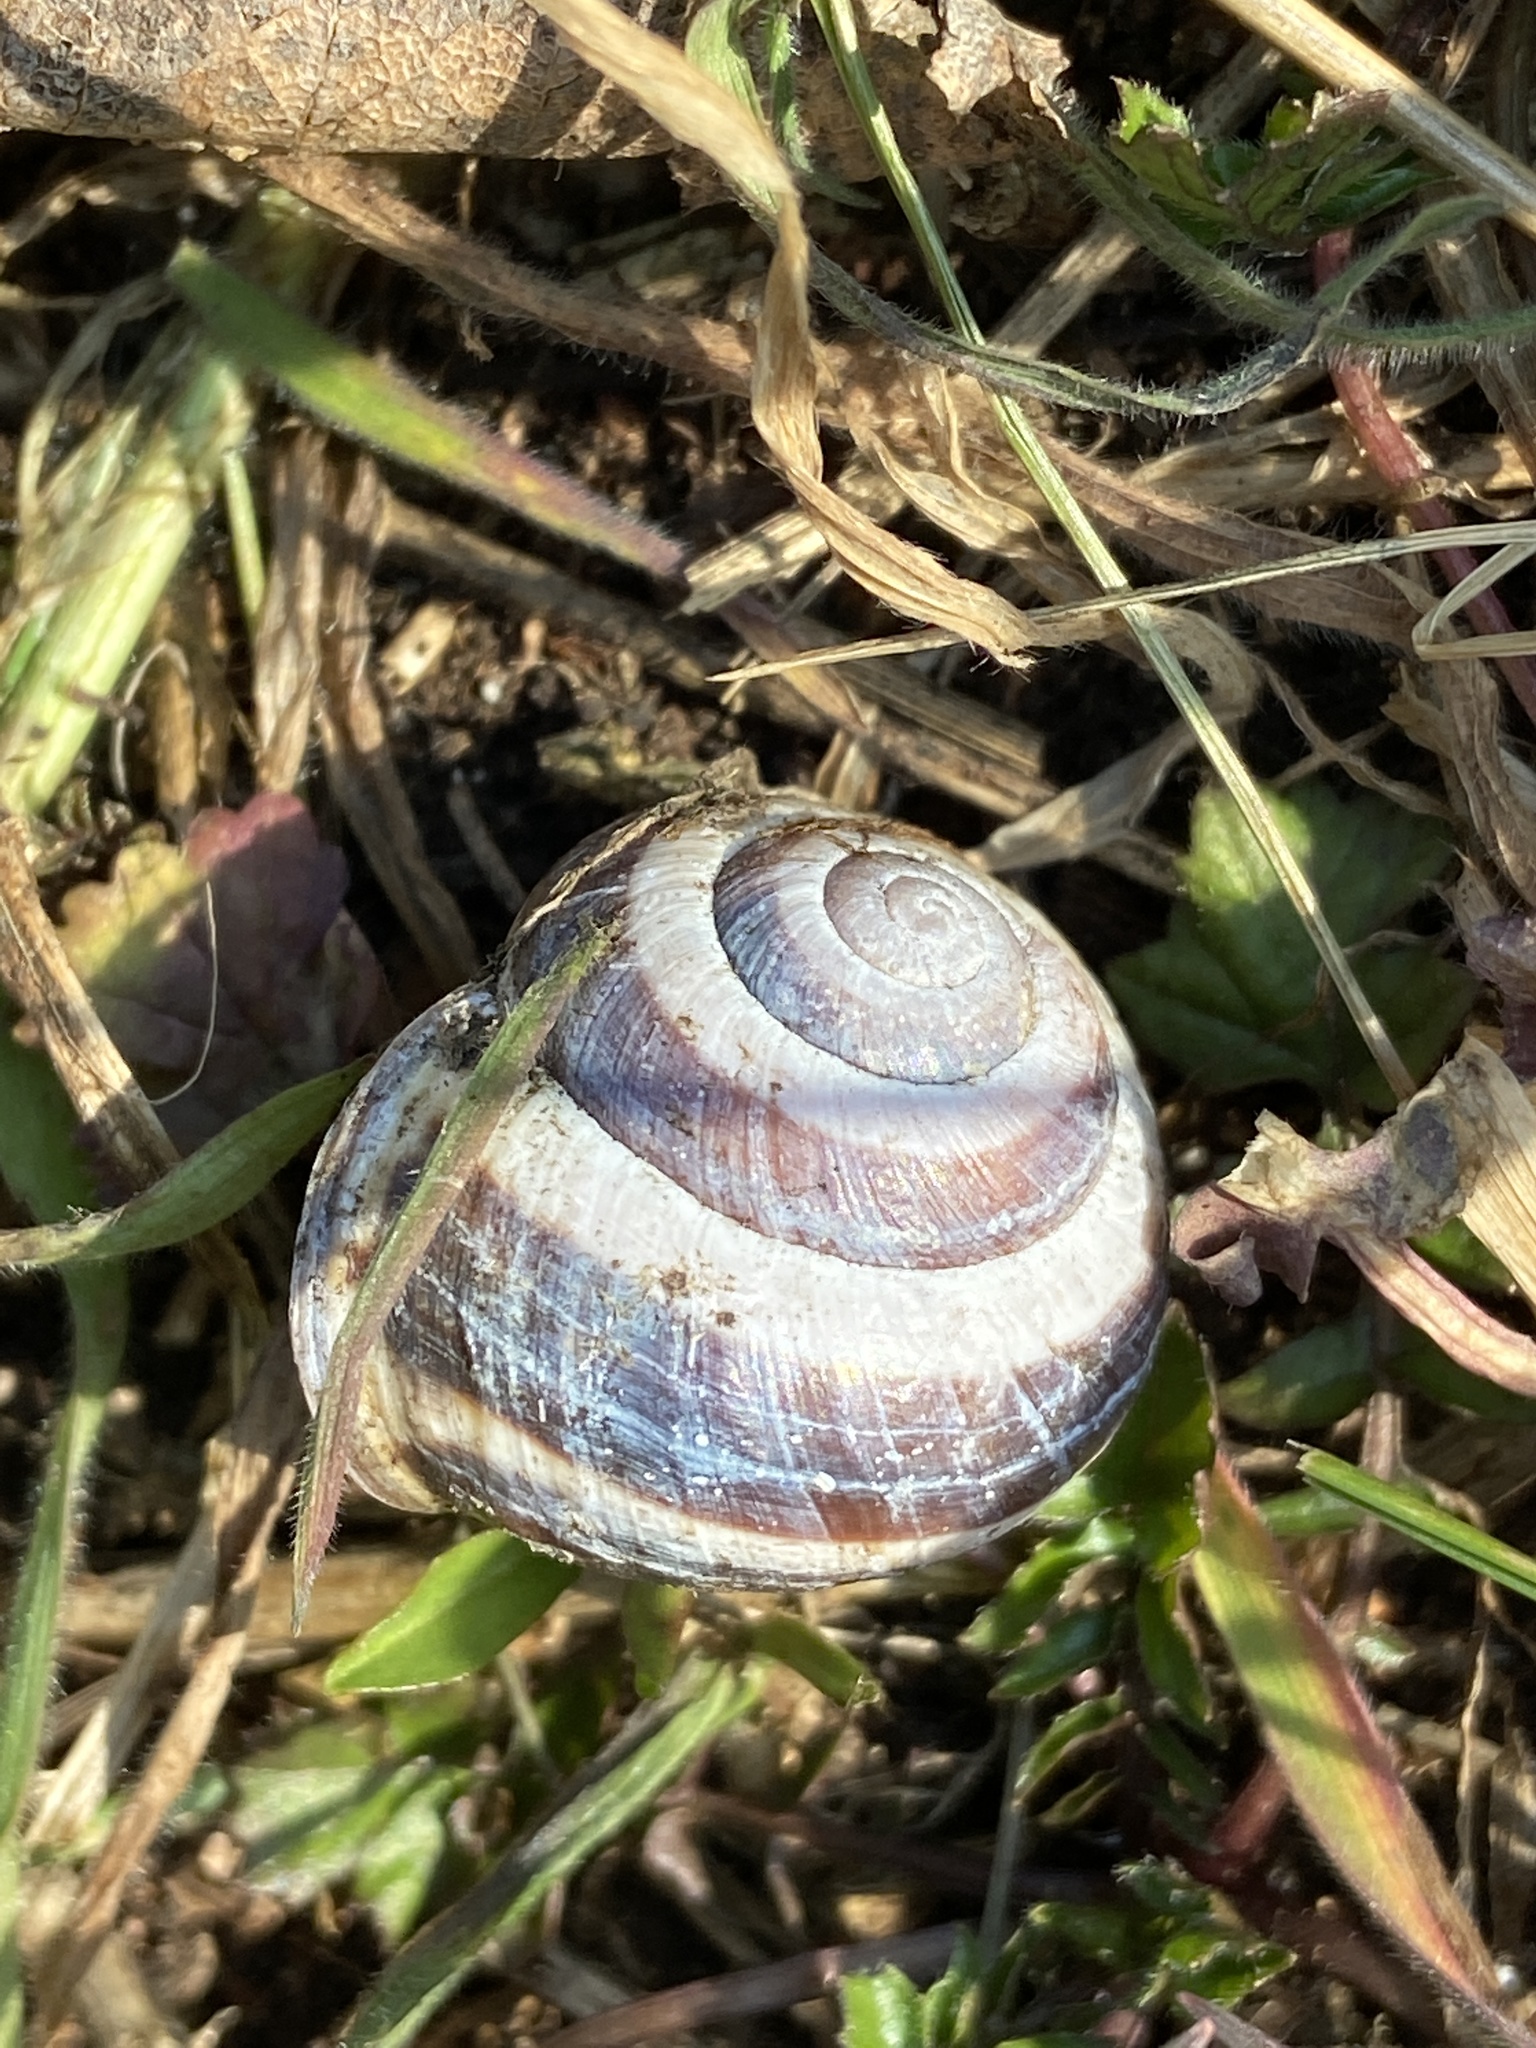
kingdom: Animalia
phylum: Mollusca
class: Gastropoda
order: Stylommatophora
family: Helicidae
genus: Cepaea
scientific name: Cepaea nemoralis
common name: Grovesnail
